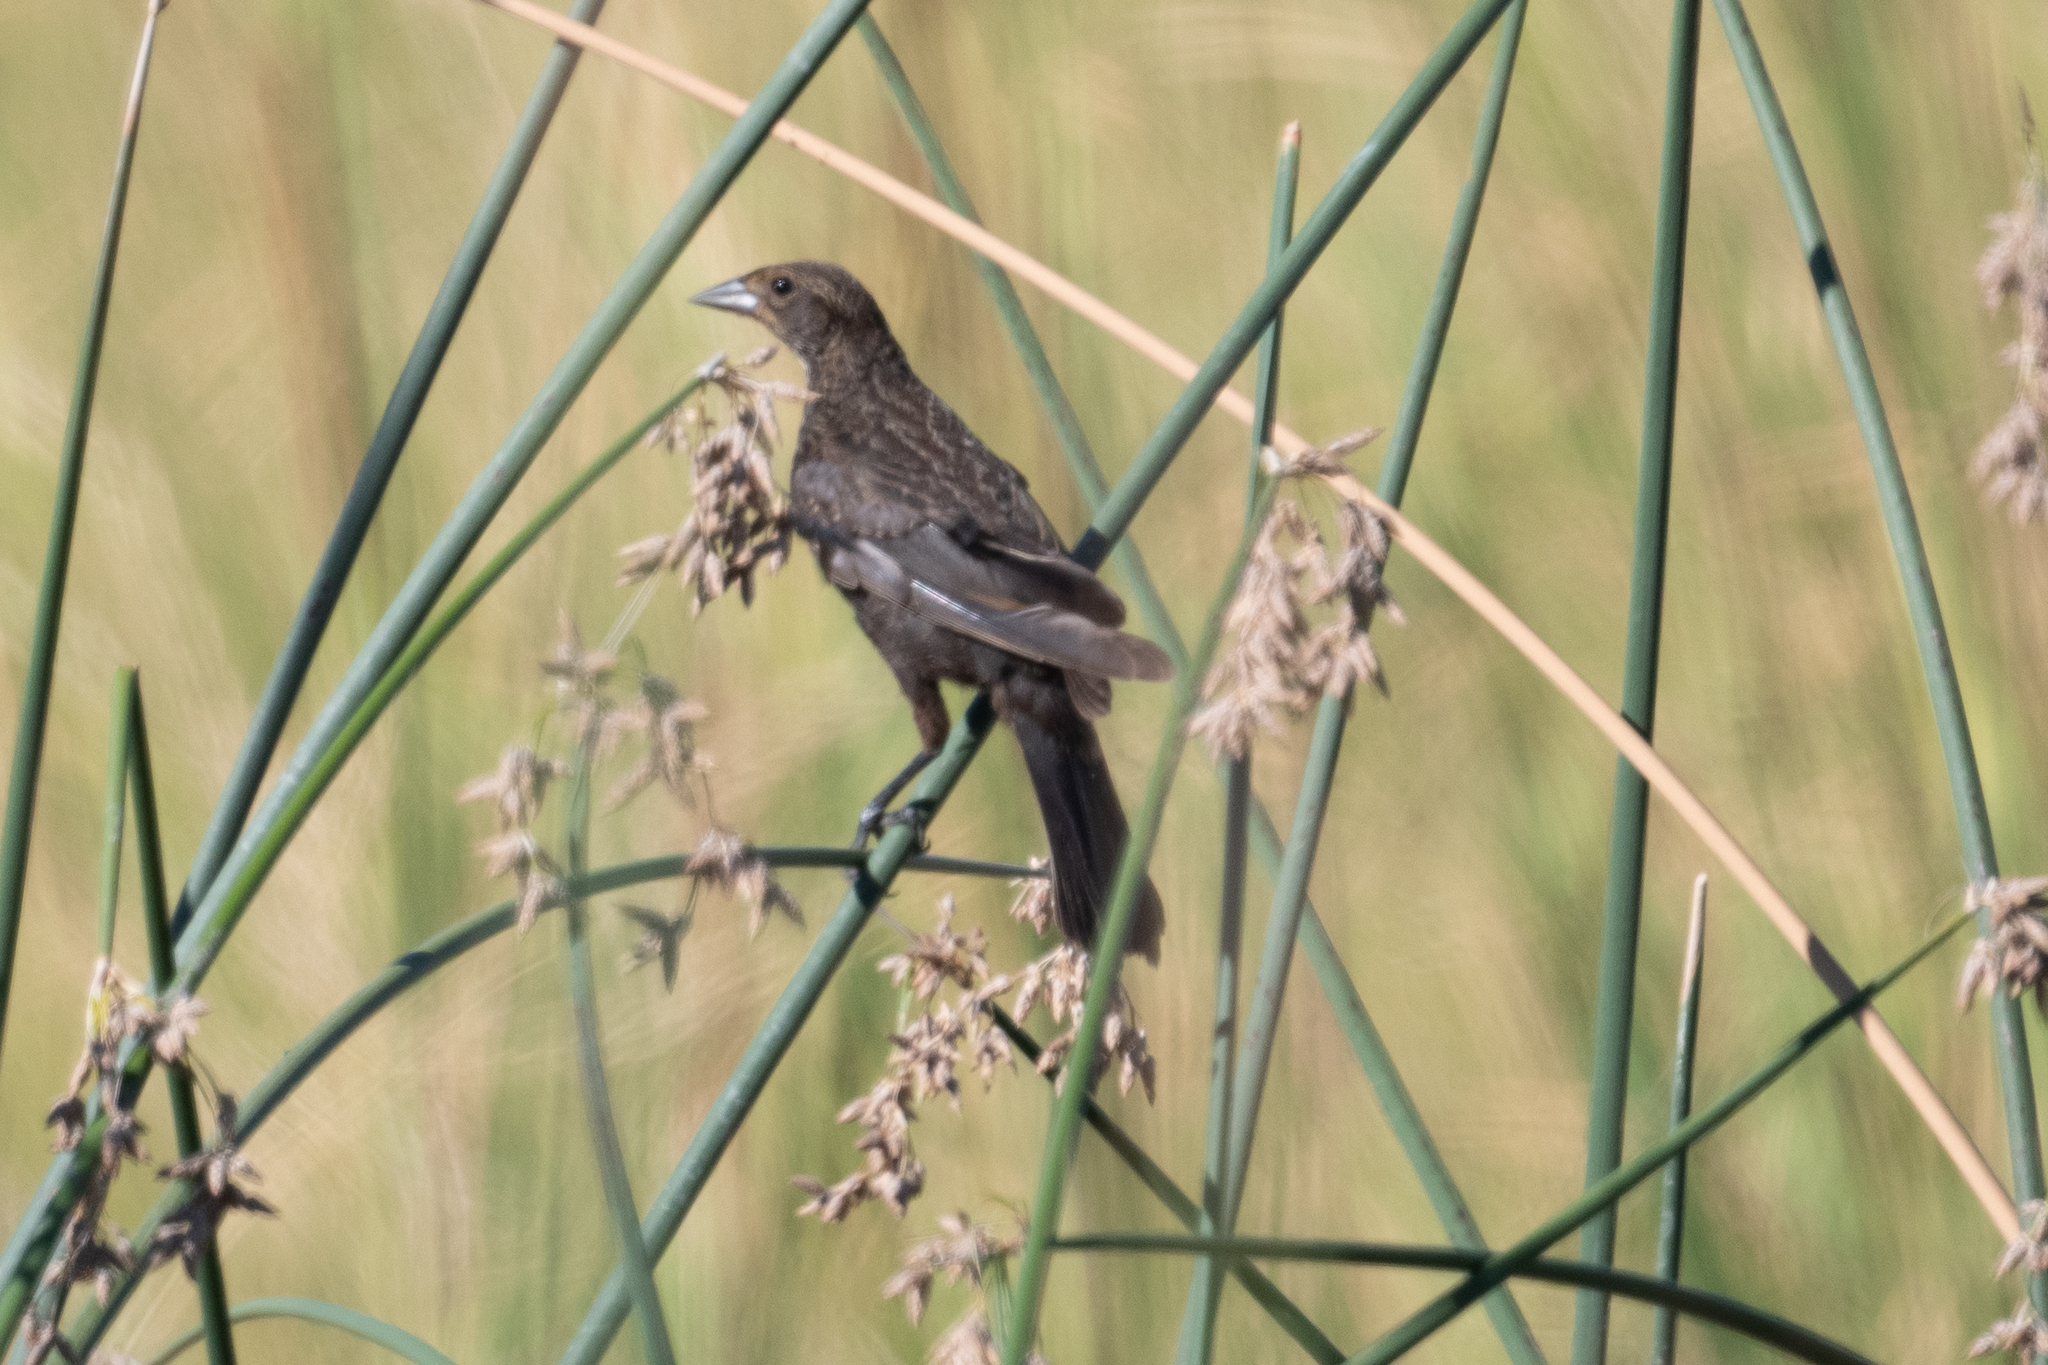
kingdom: Animalia
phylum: Chordata
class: Aves
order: Passeriformes
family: Icteridae
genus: Agelaius
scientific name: Agelaius phoeniceus
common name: Red-winged blackbird
